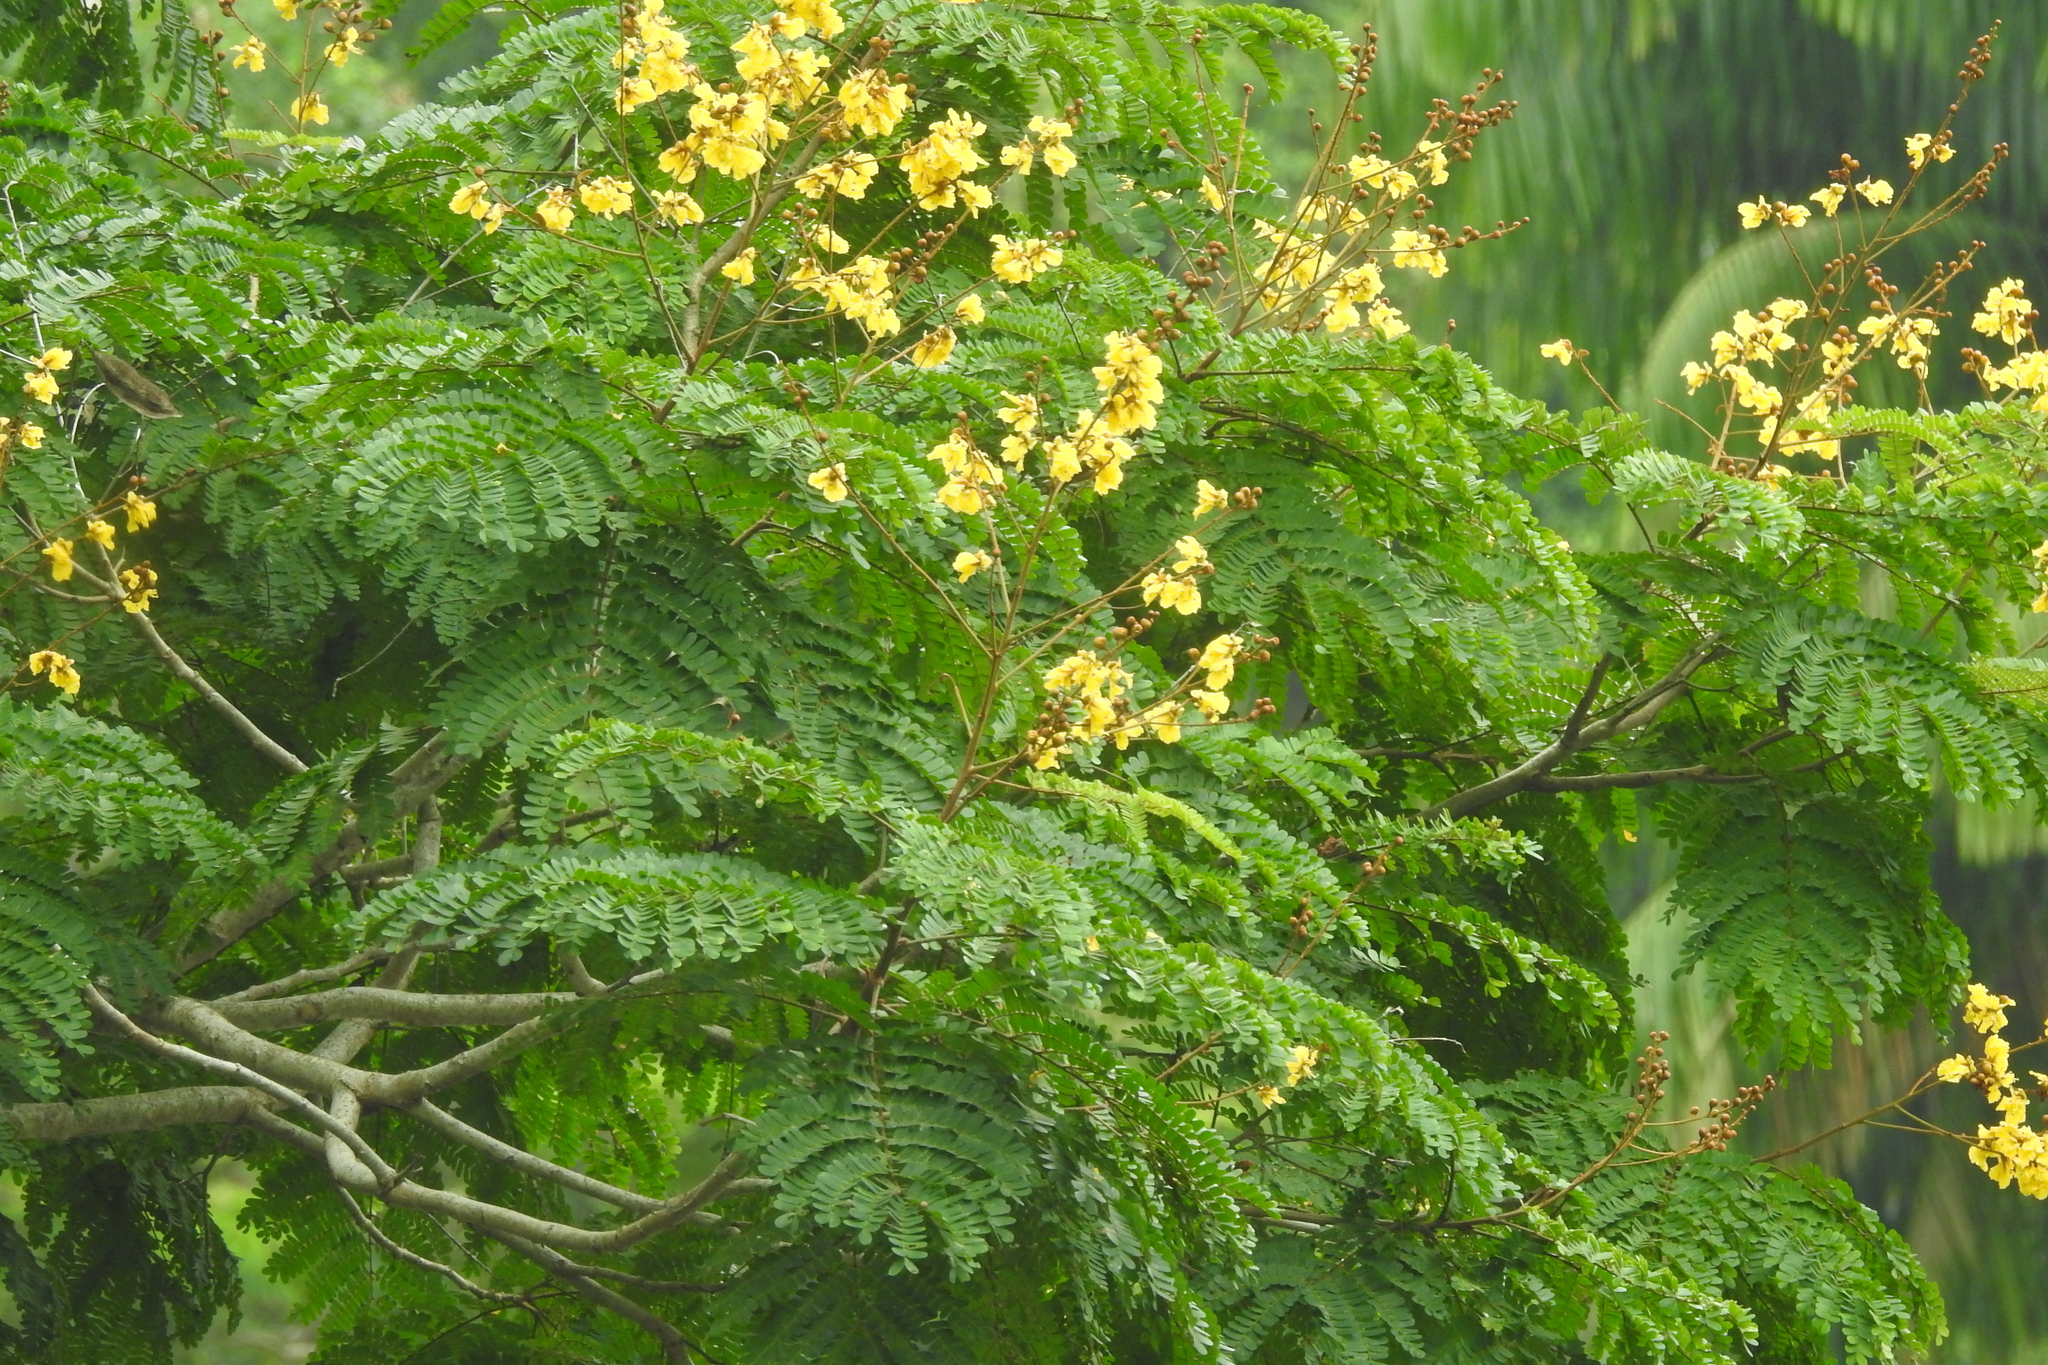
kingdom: Plantae
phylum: Tracheophyta
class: Magnoliopsida
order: Fabales
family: Fabaceae
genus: Peltophorum
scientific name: Peltophorum pterocarpum
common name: Yellow flame
